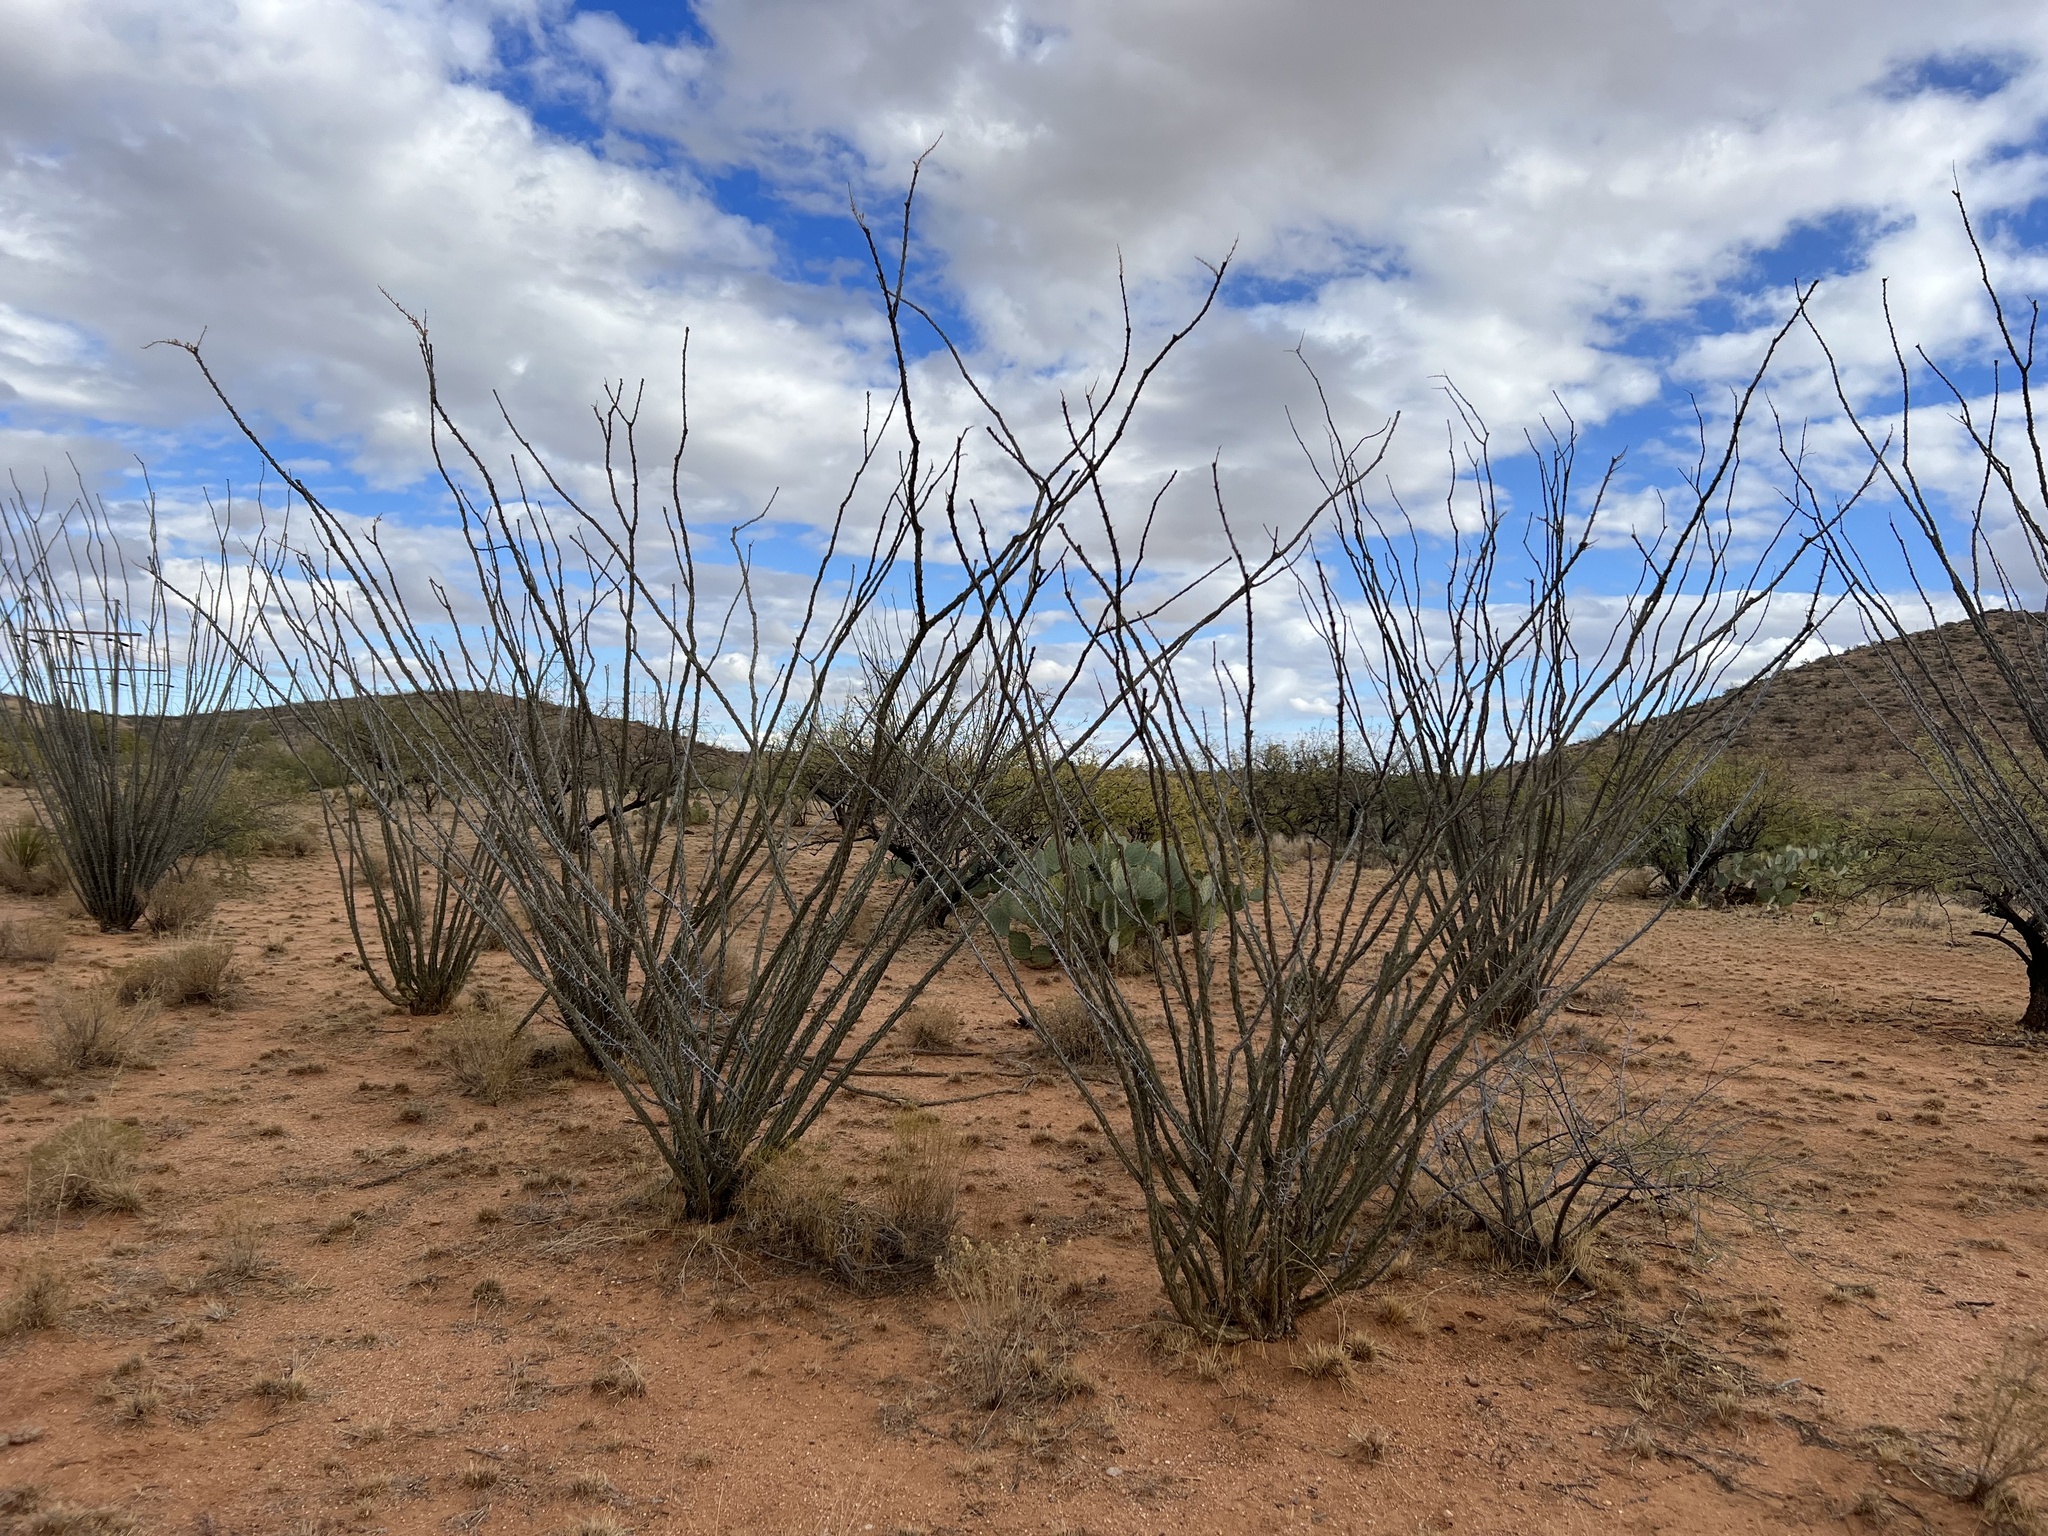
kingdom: Plantae
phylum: Tracheophyta
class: Magnoliopsida
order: Ericales
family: Fouquieriaceae
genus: Fouquieria
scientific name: Fouquieria splendens
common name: Vine-cactus
